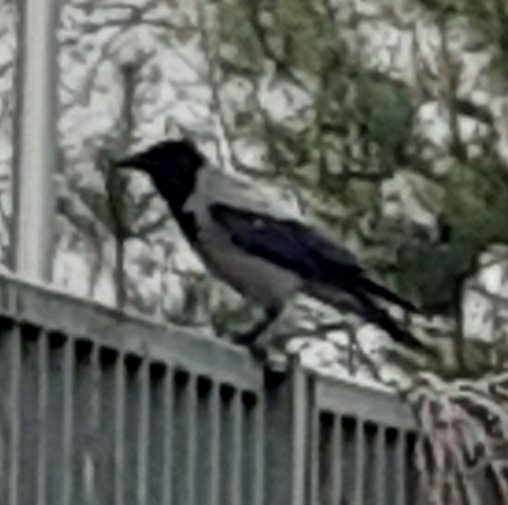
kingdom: Animalia
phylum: Chordata
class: Aves
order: Passeriformes
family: Corvidae
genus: Corvus
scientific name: Corvus cornix
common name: Hooded crow
